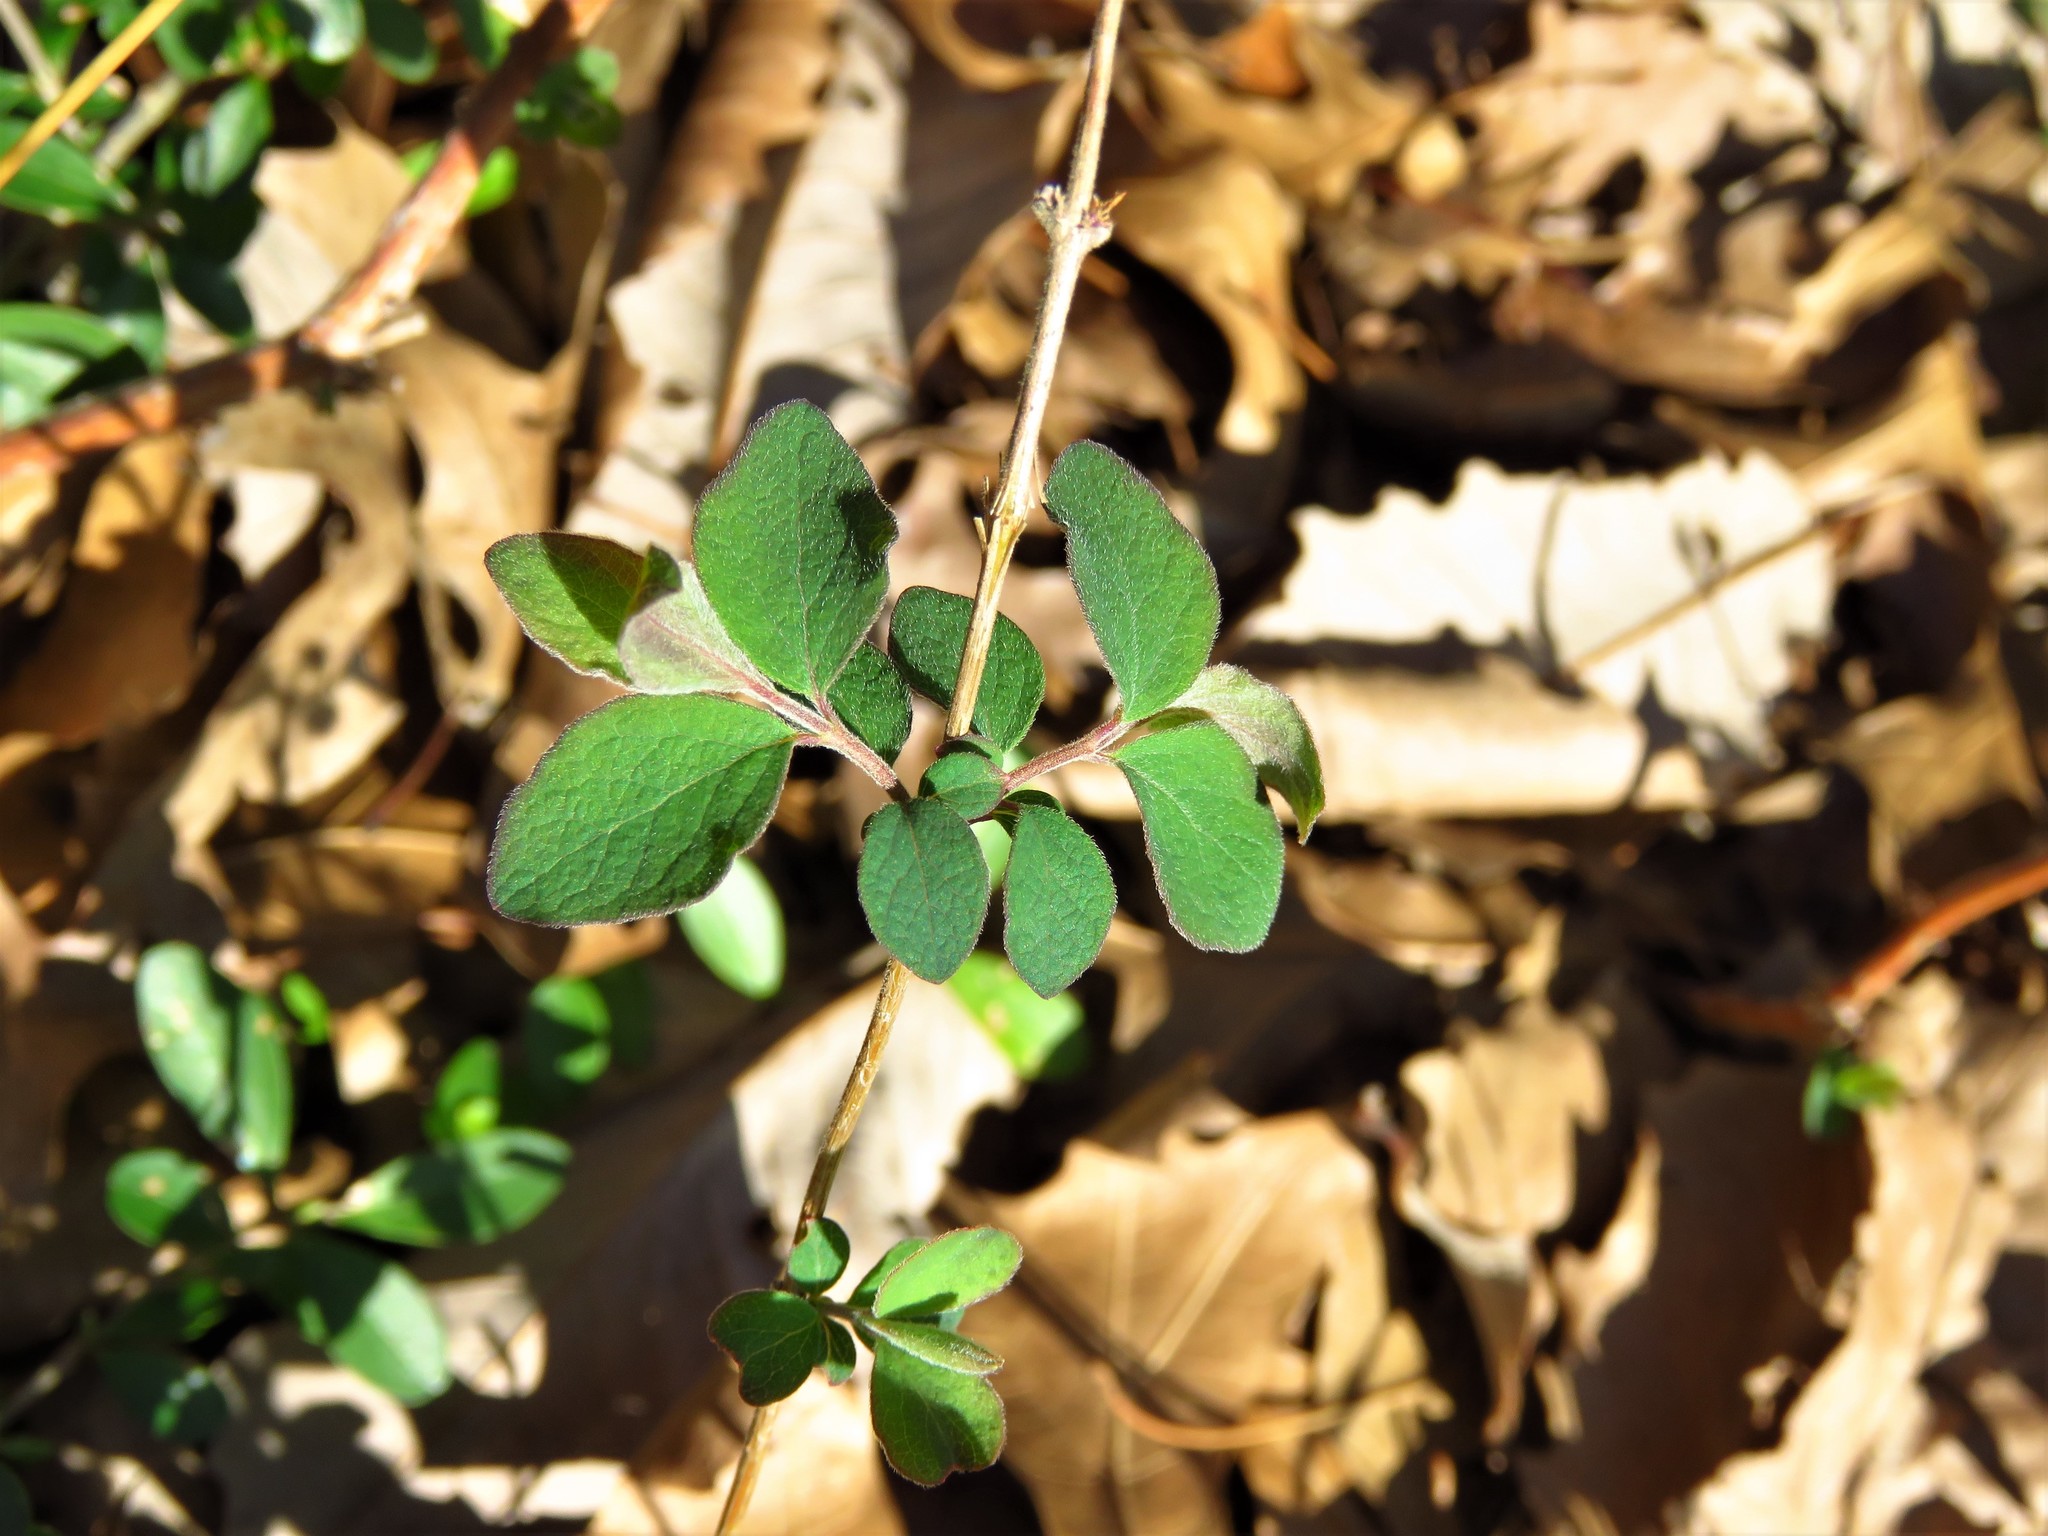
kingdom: Plantae
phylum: Tracheophyta
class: Magnoliopsida
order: Dipsacales
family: Caprifoliaceae
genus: Symphoricarpos
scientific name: Symphoricarpos orbiculatus
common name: Coralberry
